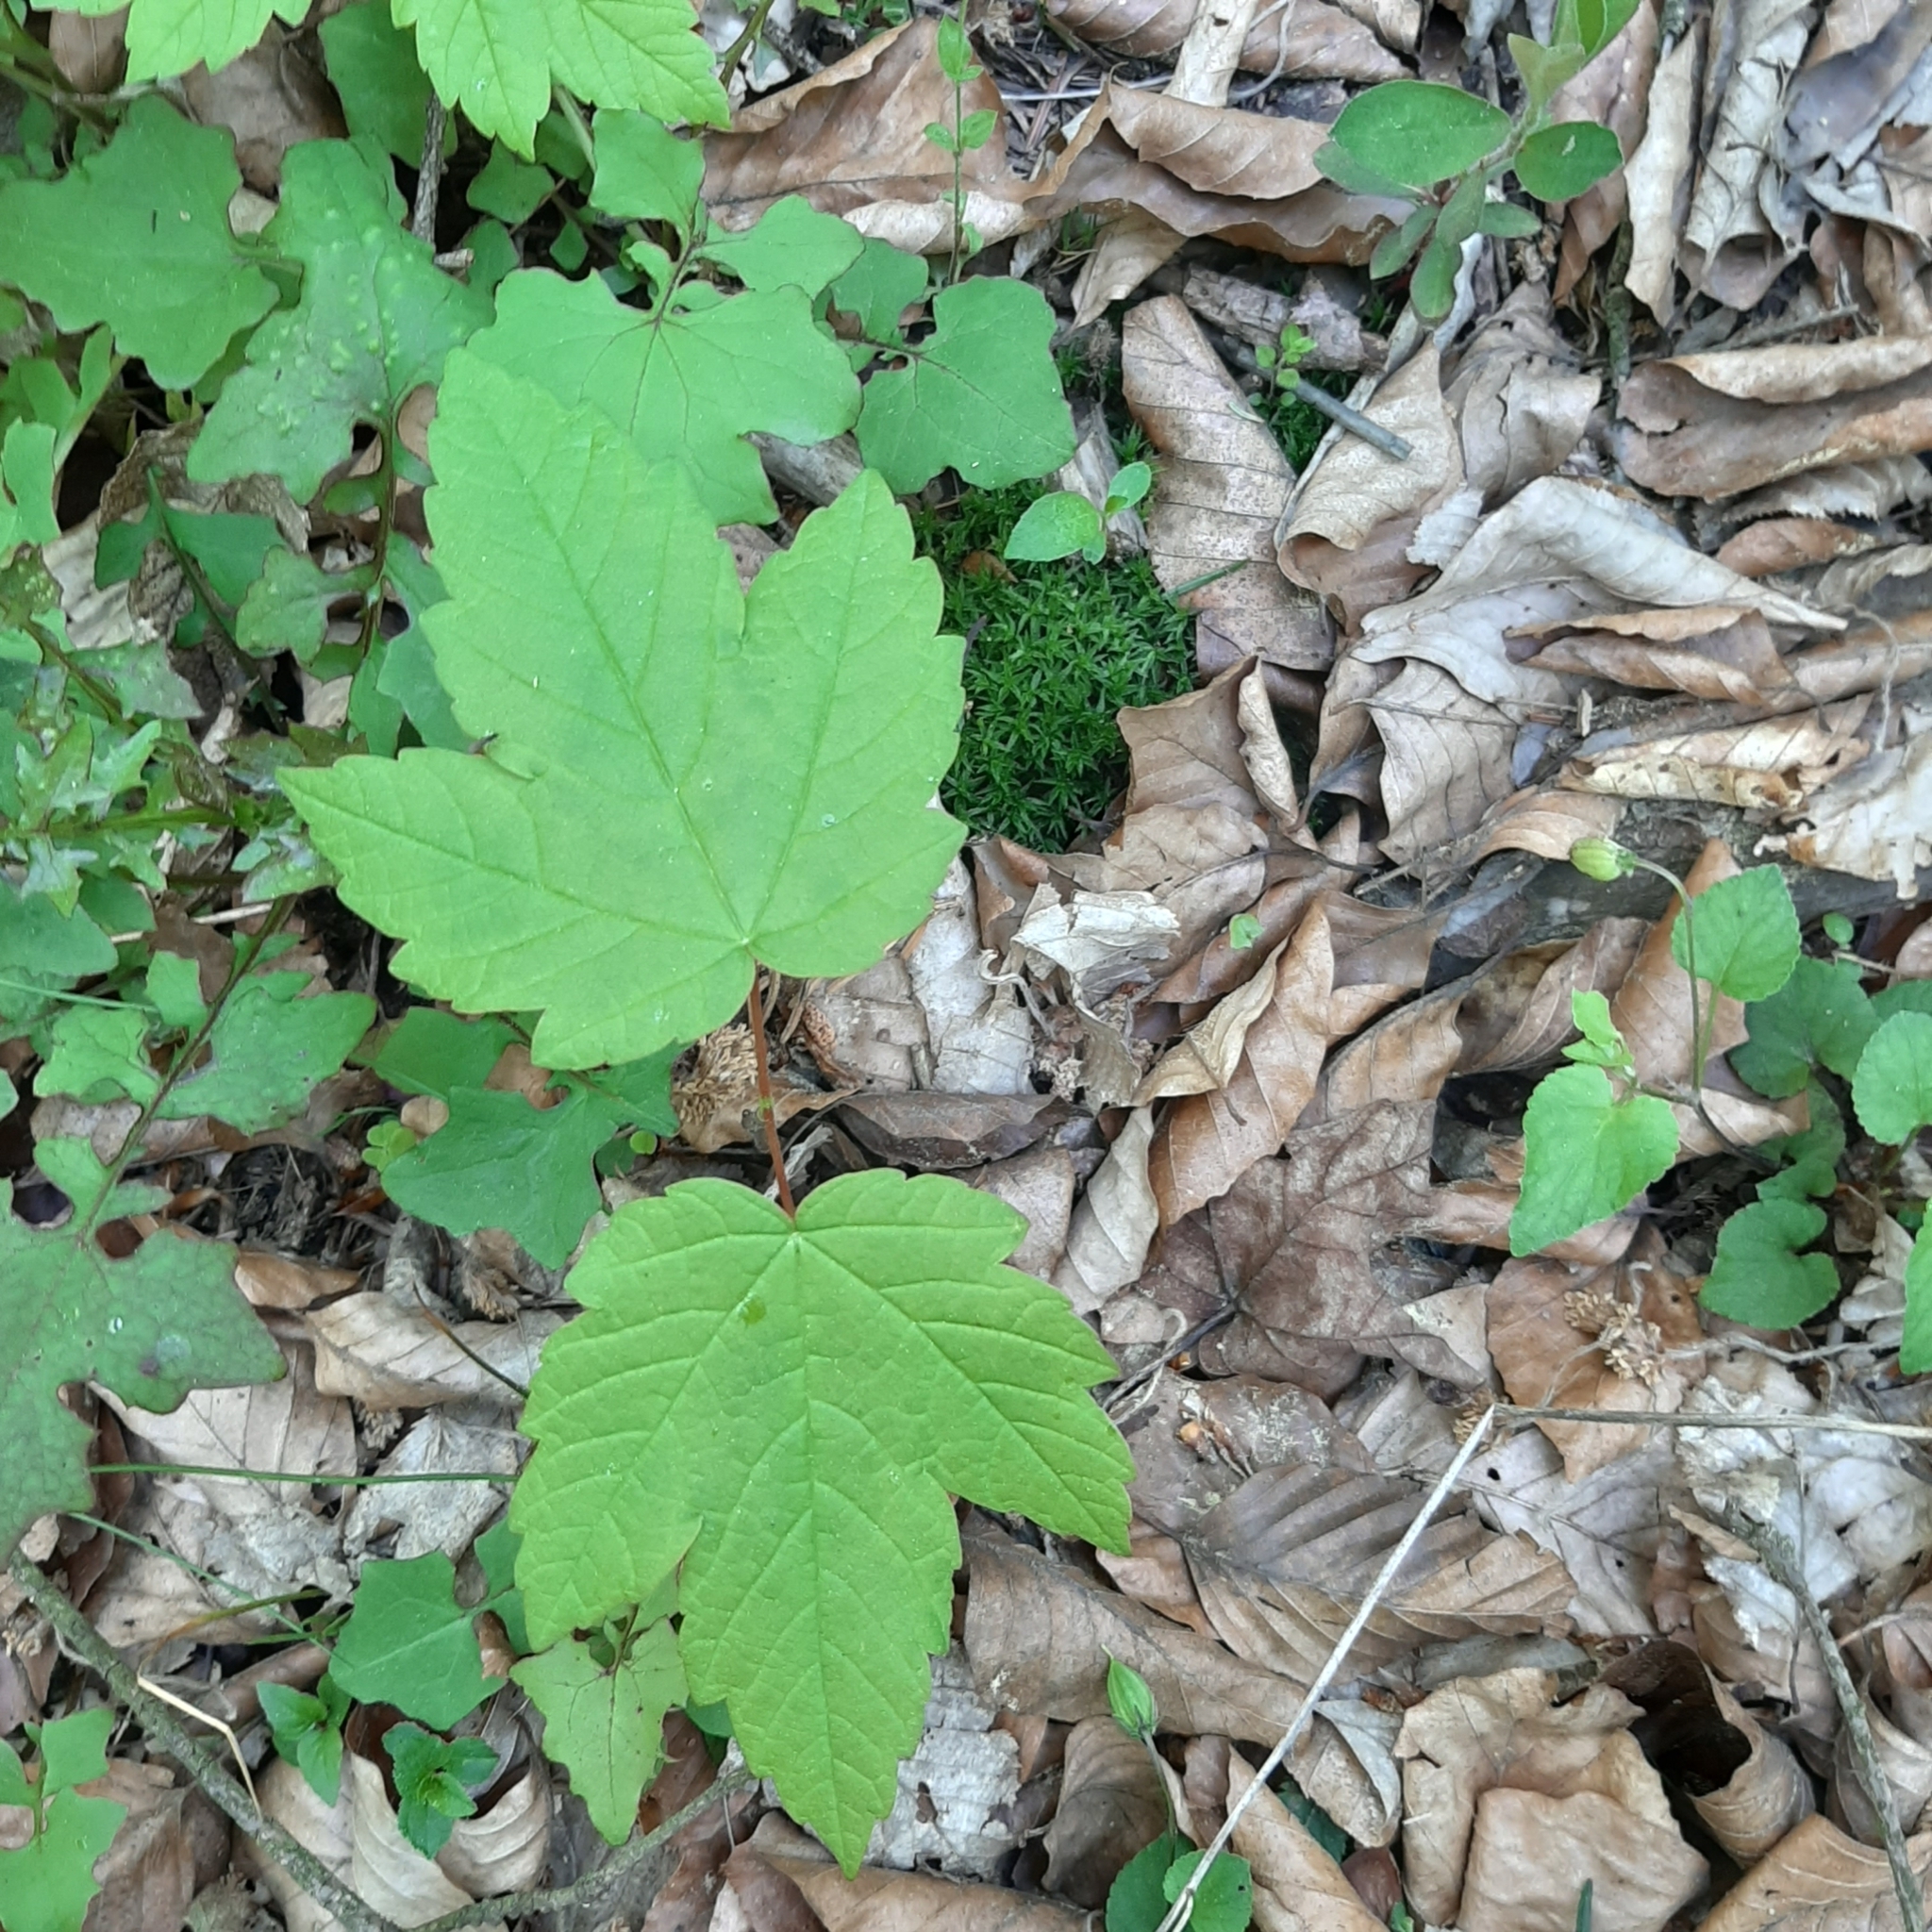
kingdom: Plantae
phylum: Tracheophyta
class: Magnoliopsida
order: Sapindales
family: Sapindaceae
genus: Acer
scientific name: Acer pseudoplatanus
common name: Sycamore
